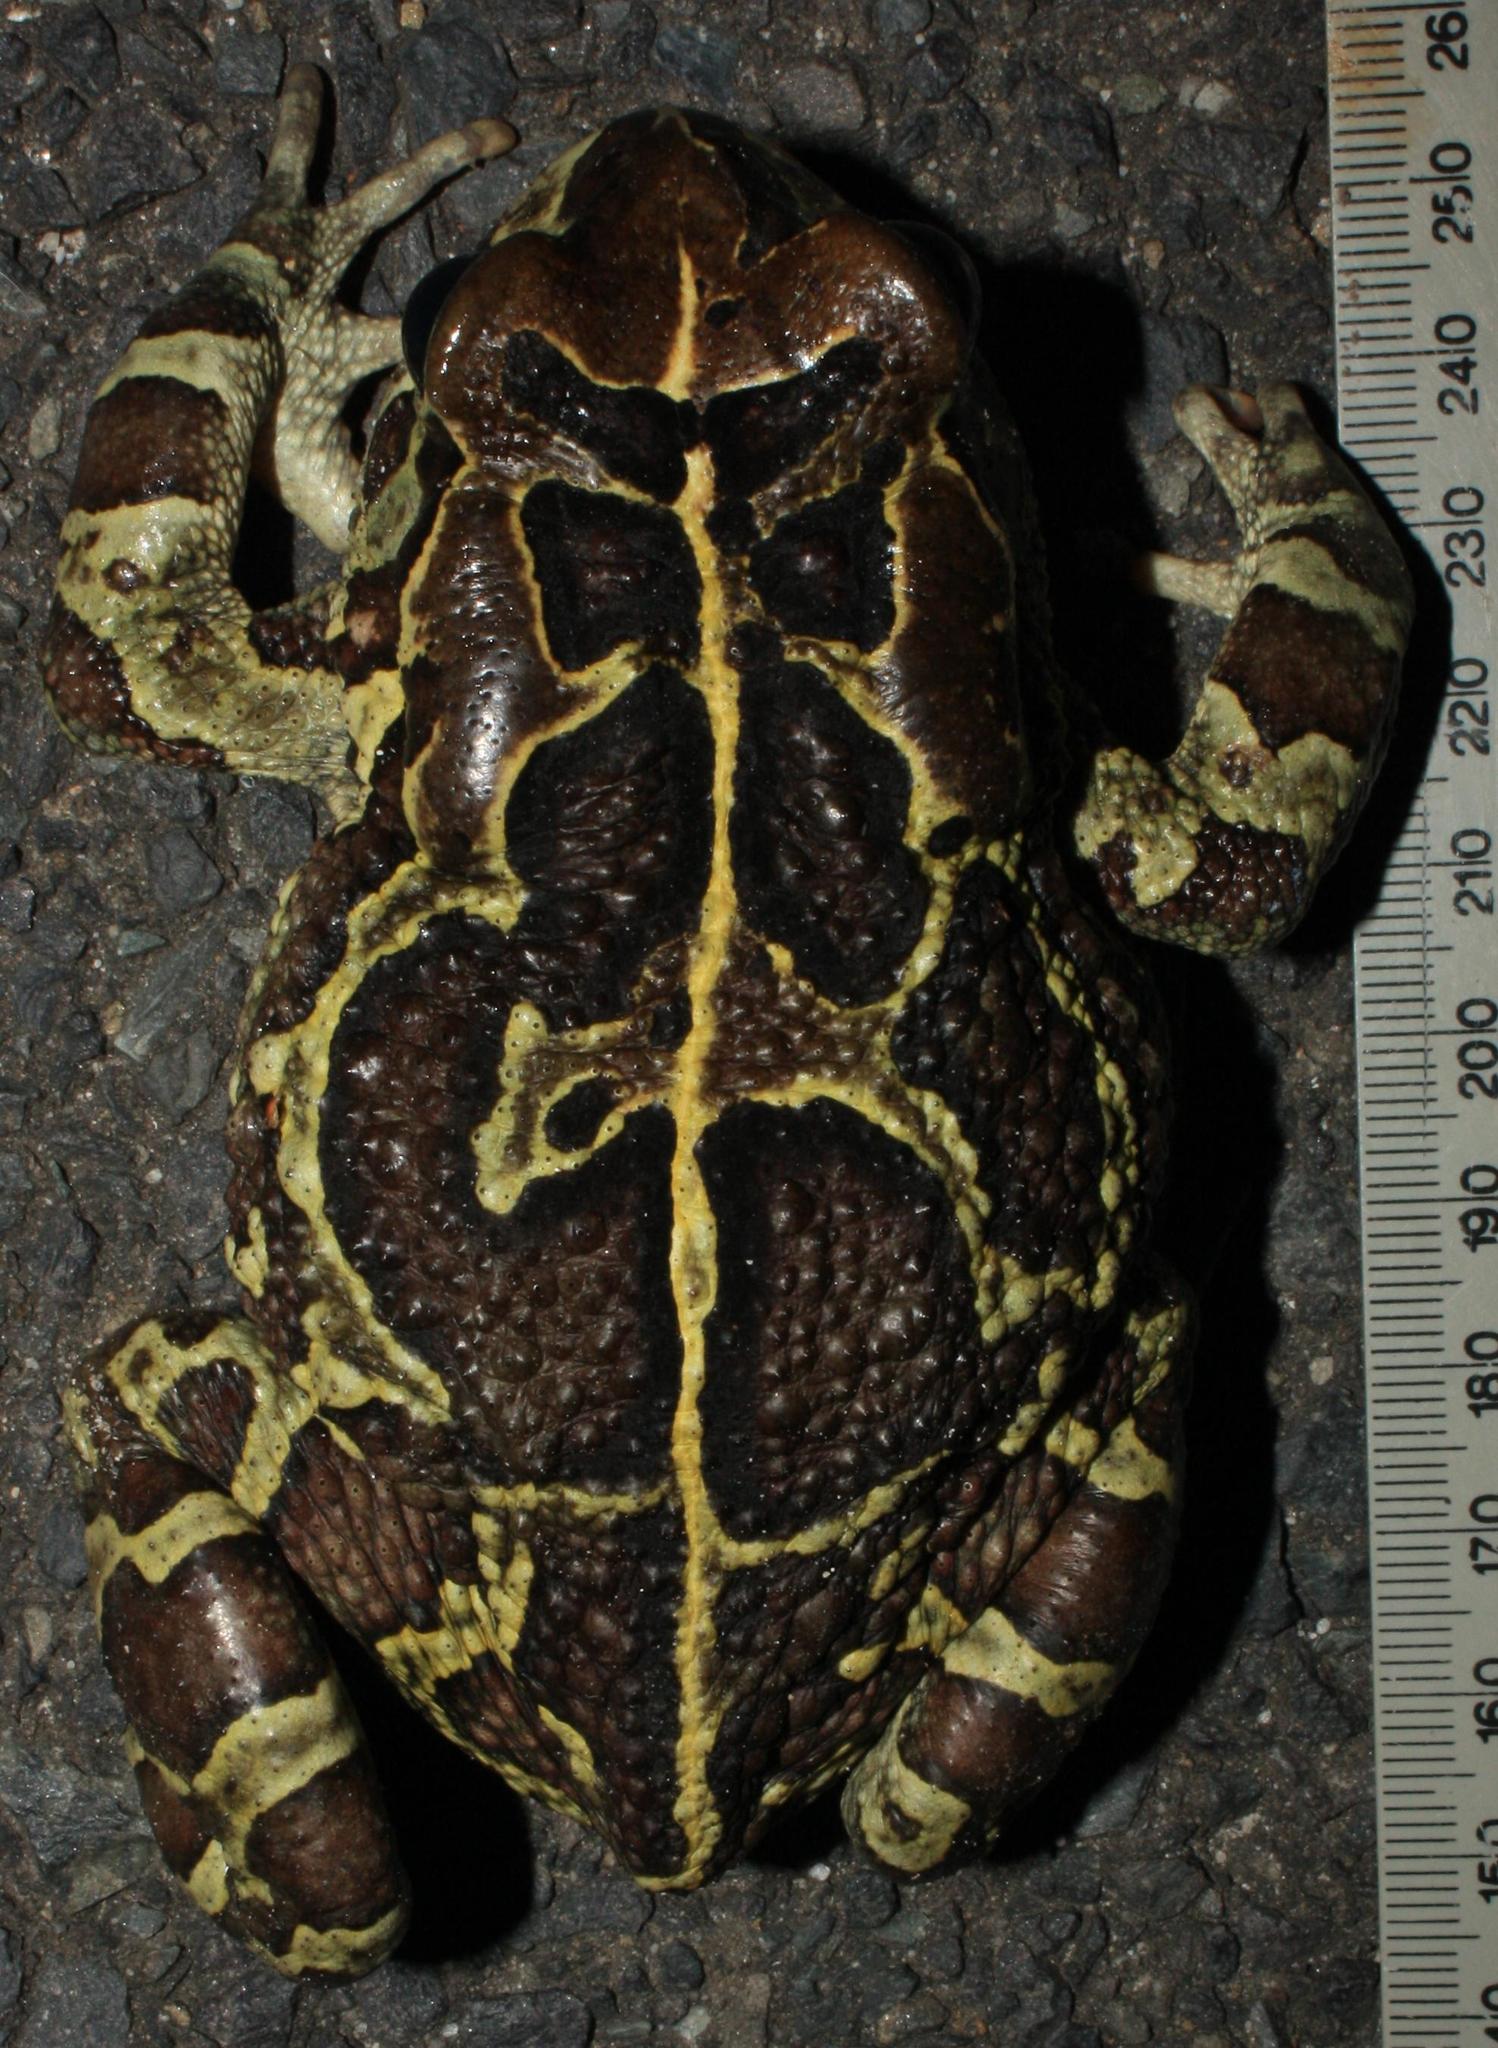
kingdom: Animalia
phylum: Chordata
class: Amphibia
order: Anura
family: Bufonidae
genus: Sclerophrys
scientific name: Sclerophrys pantherina
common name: Panther toad
